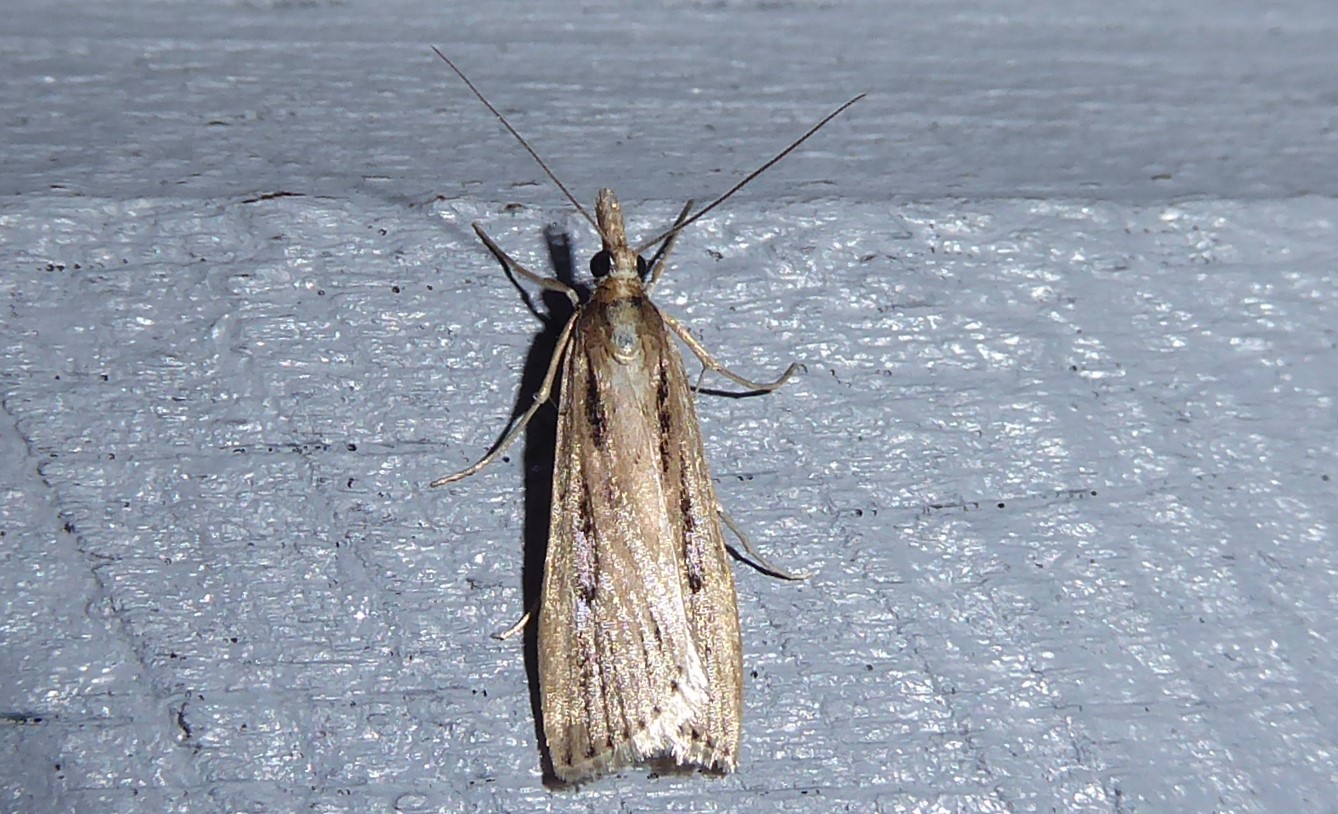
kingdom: Animalia
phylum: Arthropoda
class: Insecta
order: Lepidoptera
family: Crambidae
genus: Eudonia
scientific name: Eudonia sabulosella
